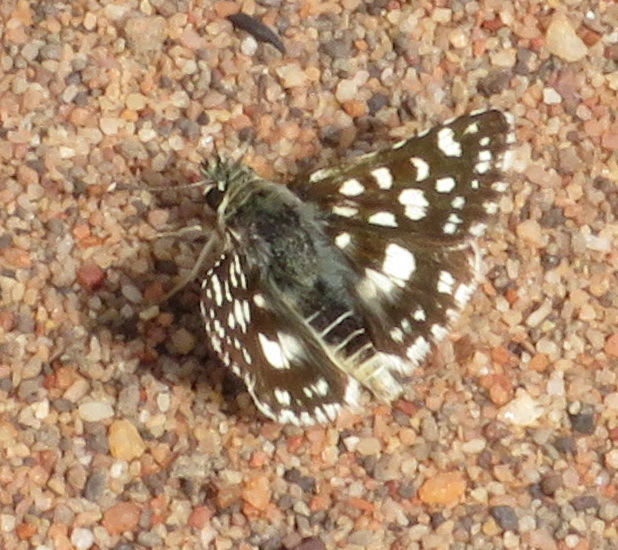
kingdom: Animalia
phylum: Arthropoda
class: Insecta
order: Lepidoptera
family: Hesperiidae
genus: Spialia
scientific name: Spialia spio
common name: Mountain sandman
